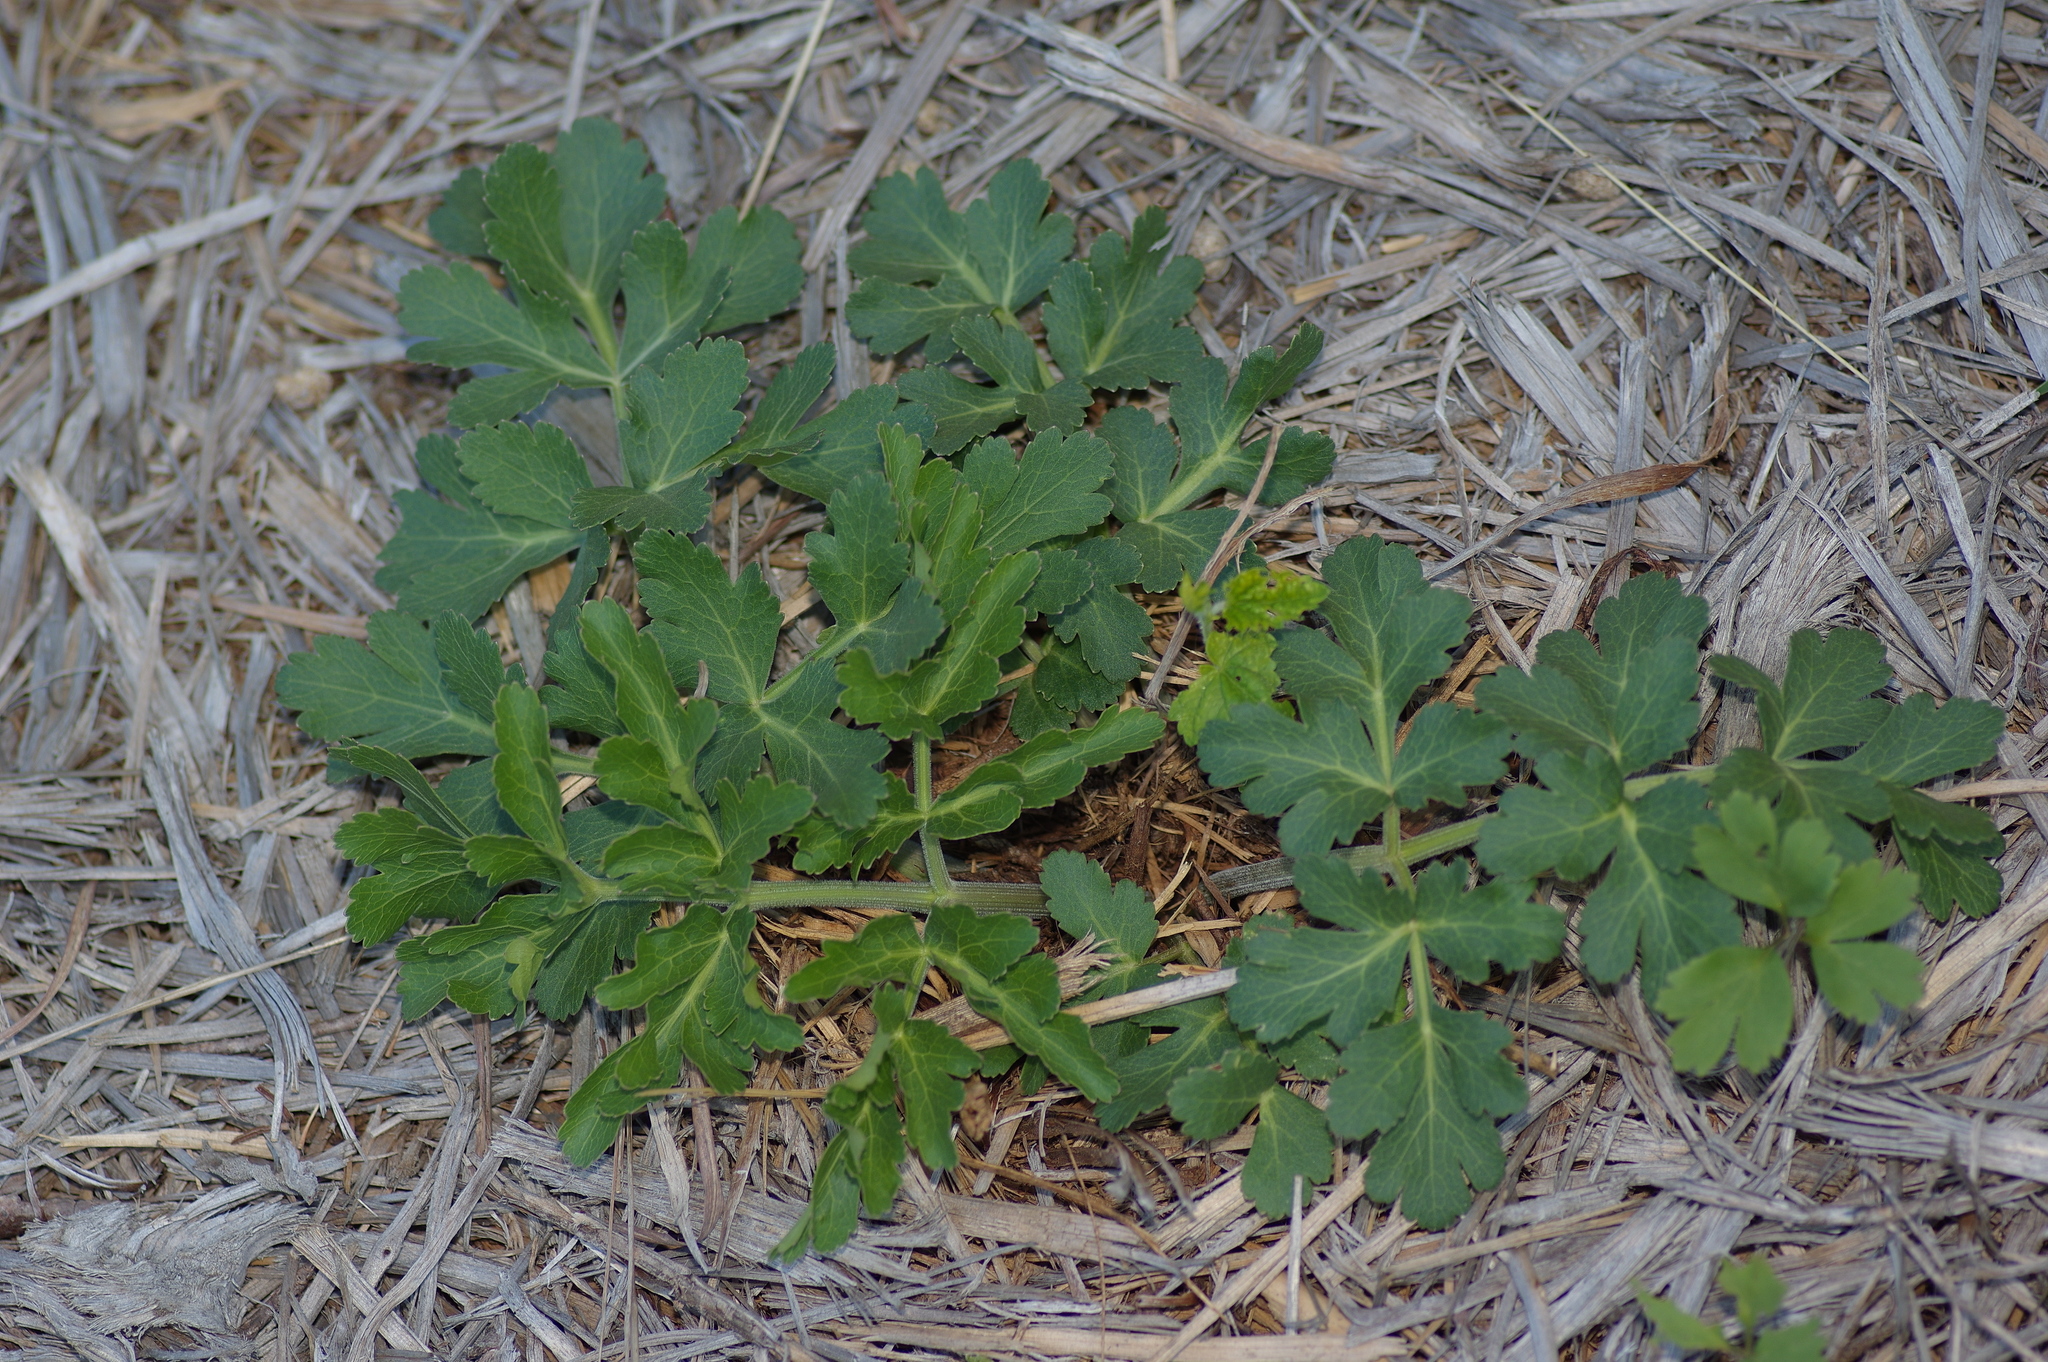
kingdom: Plantae
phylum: Tracheophyta
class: Magnoliopsida
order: Apiales
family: Apiaceae
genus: Polytaenia
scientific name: Polytaenia texana
